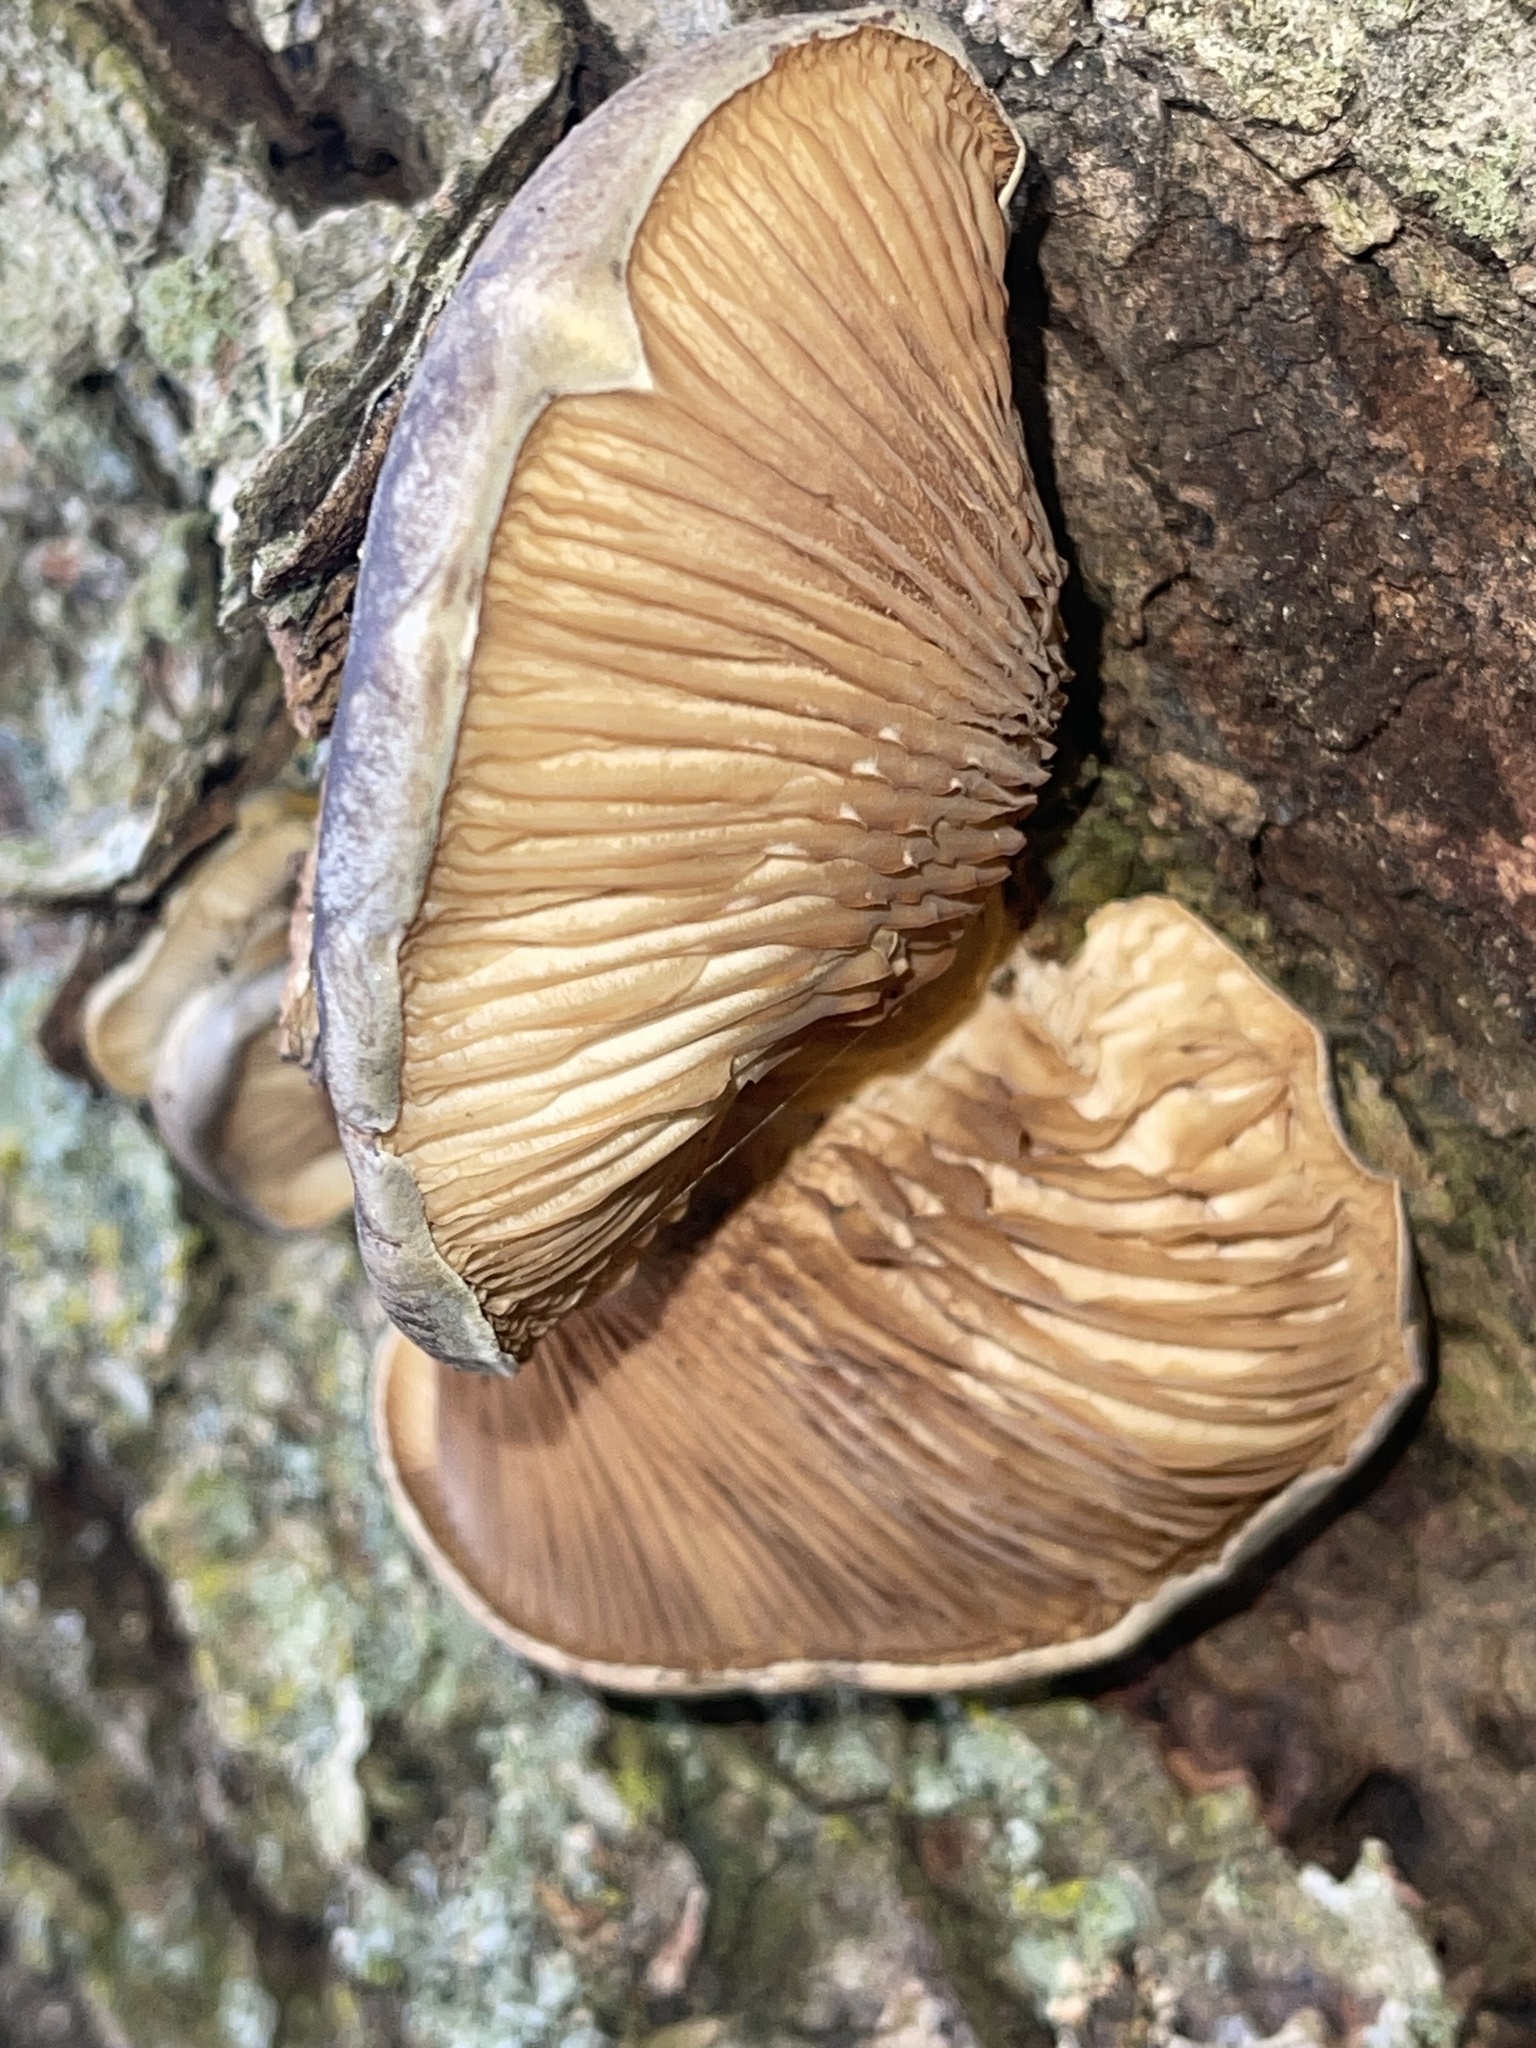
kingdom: Fungi
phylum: Basidiomycota
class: Agaricomycetes
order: Agaricales
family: Sarcomyxaceae
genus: Sarcomyxa
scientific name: Sarcomyxa serotina
